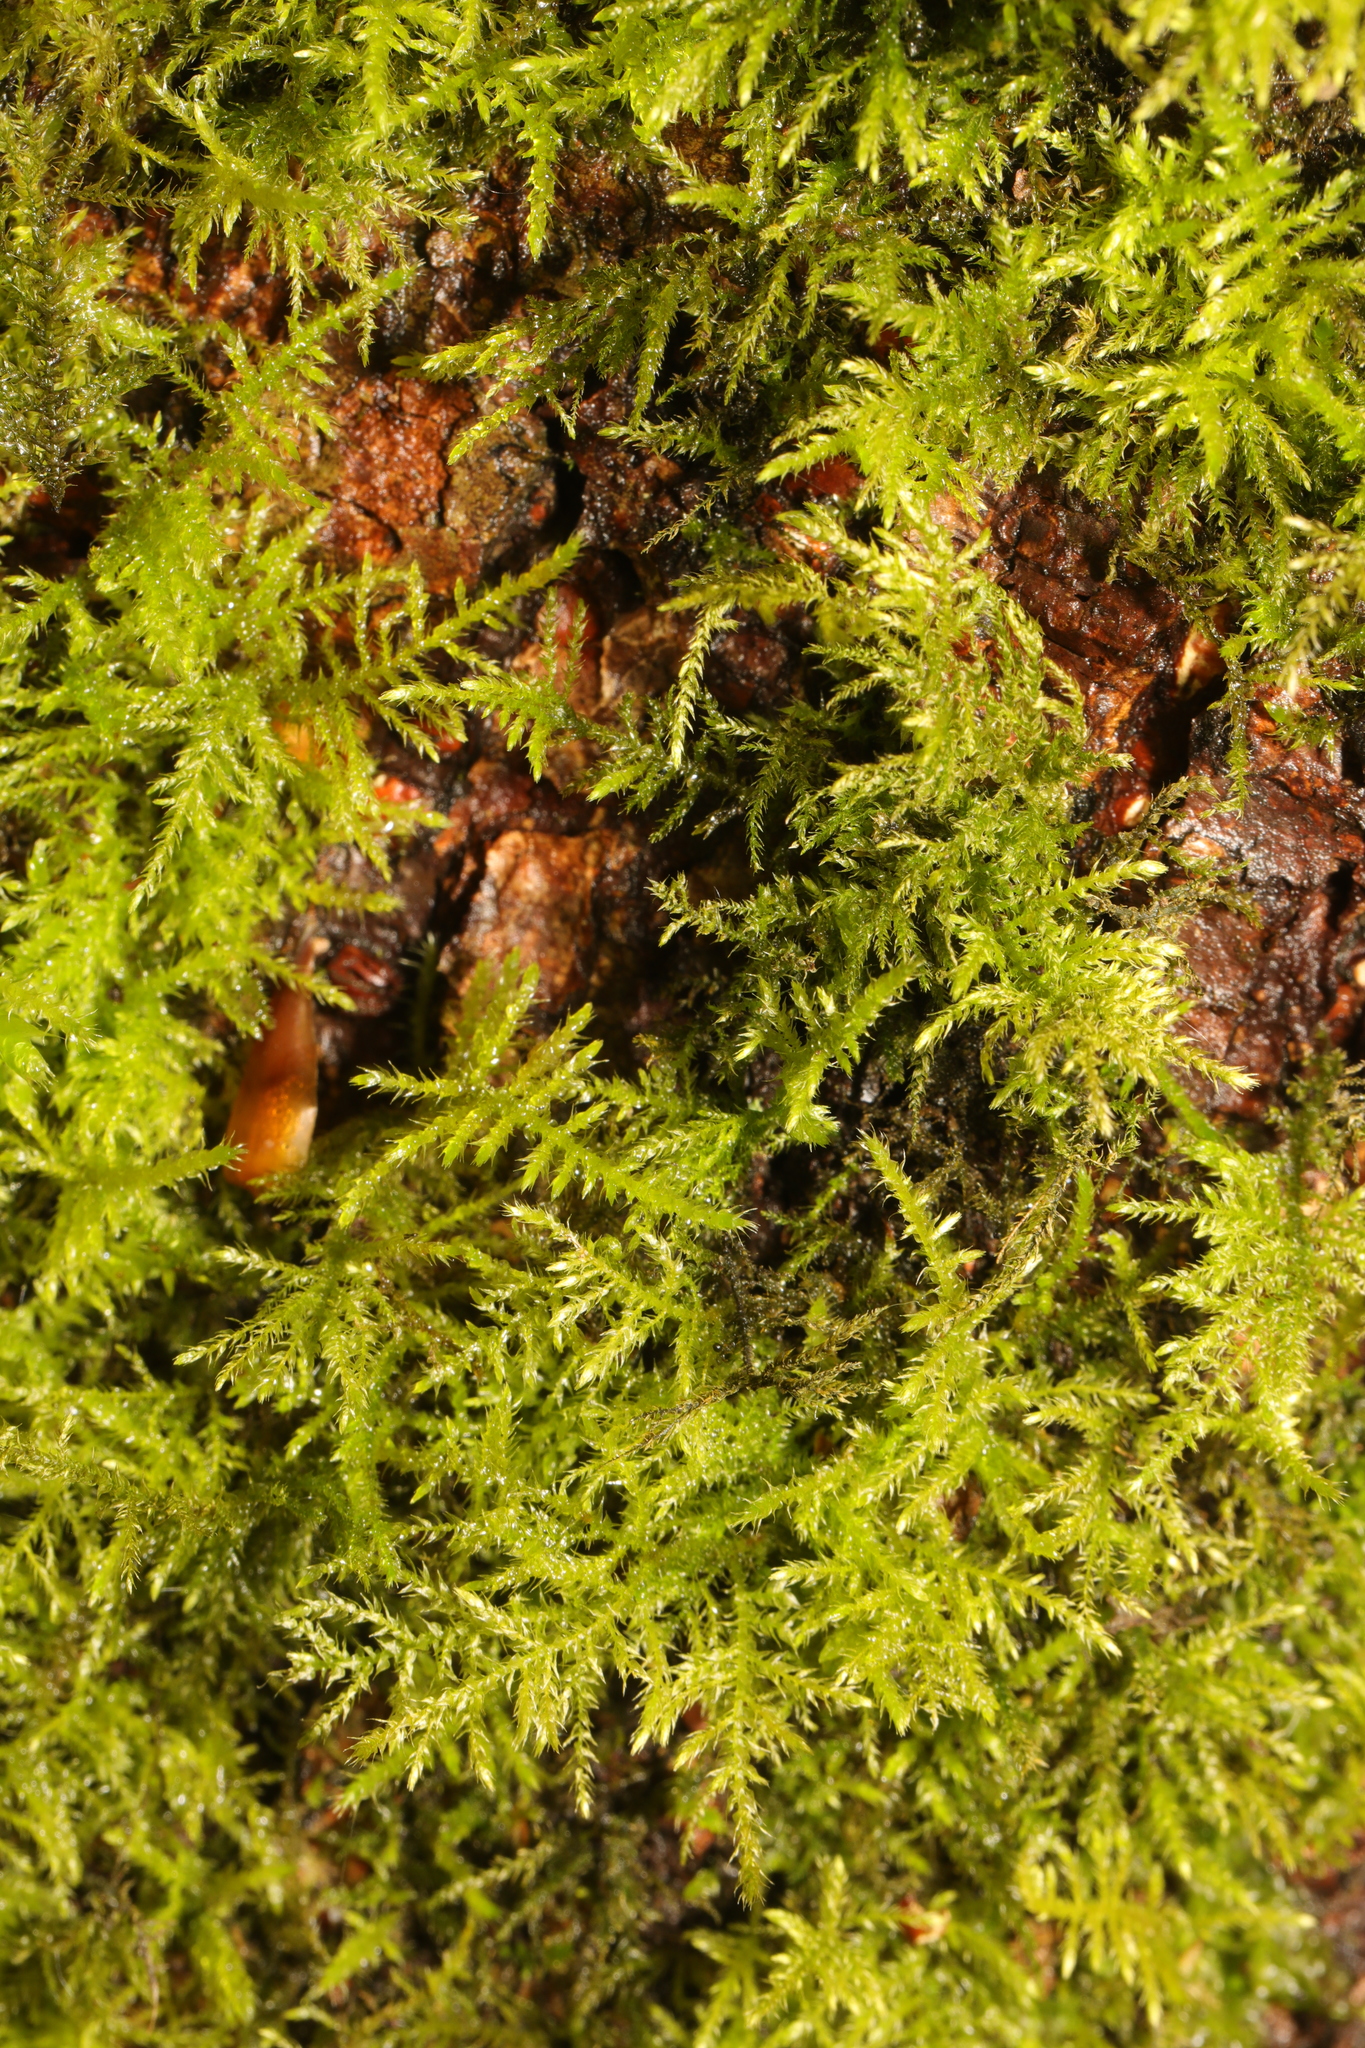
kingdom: Plantae
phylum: Bryophyta
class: Bryopsida
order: Hypnales
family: Brachytheciaceae
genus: Kindbergia
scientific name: Kindbergia praelonga
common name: Slender beaked moss
